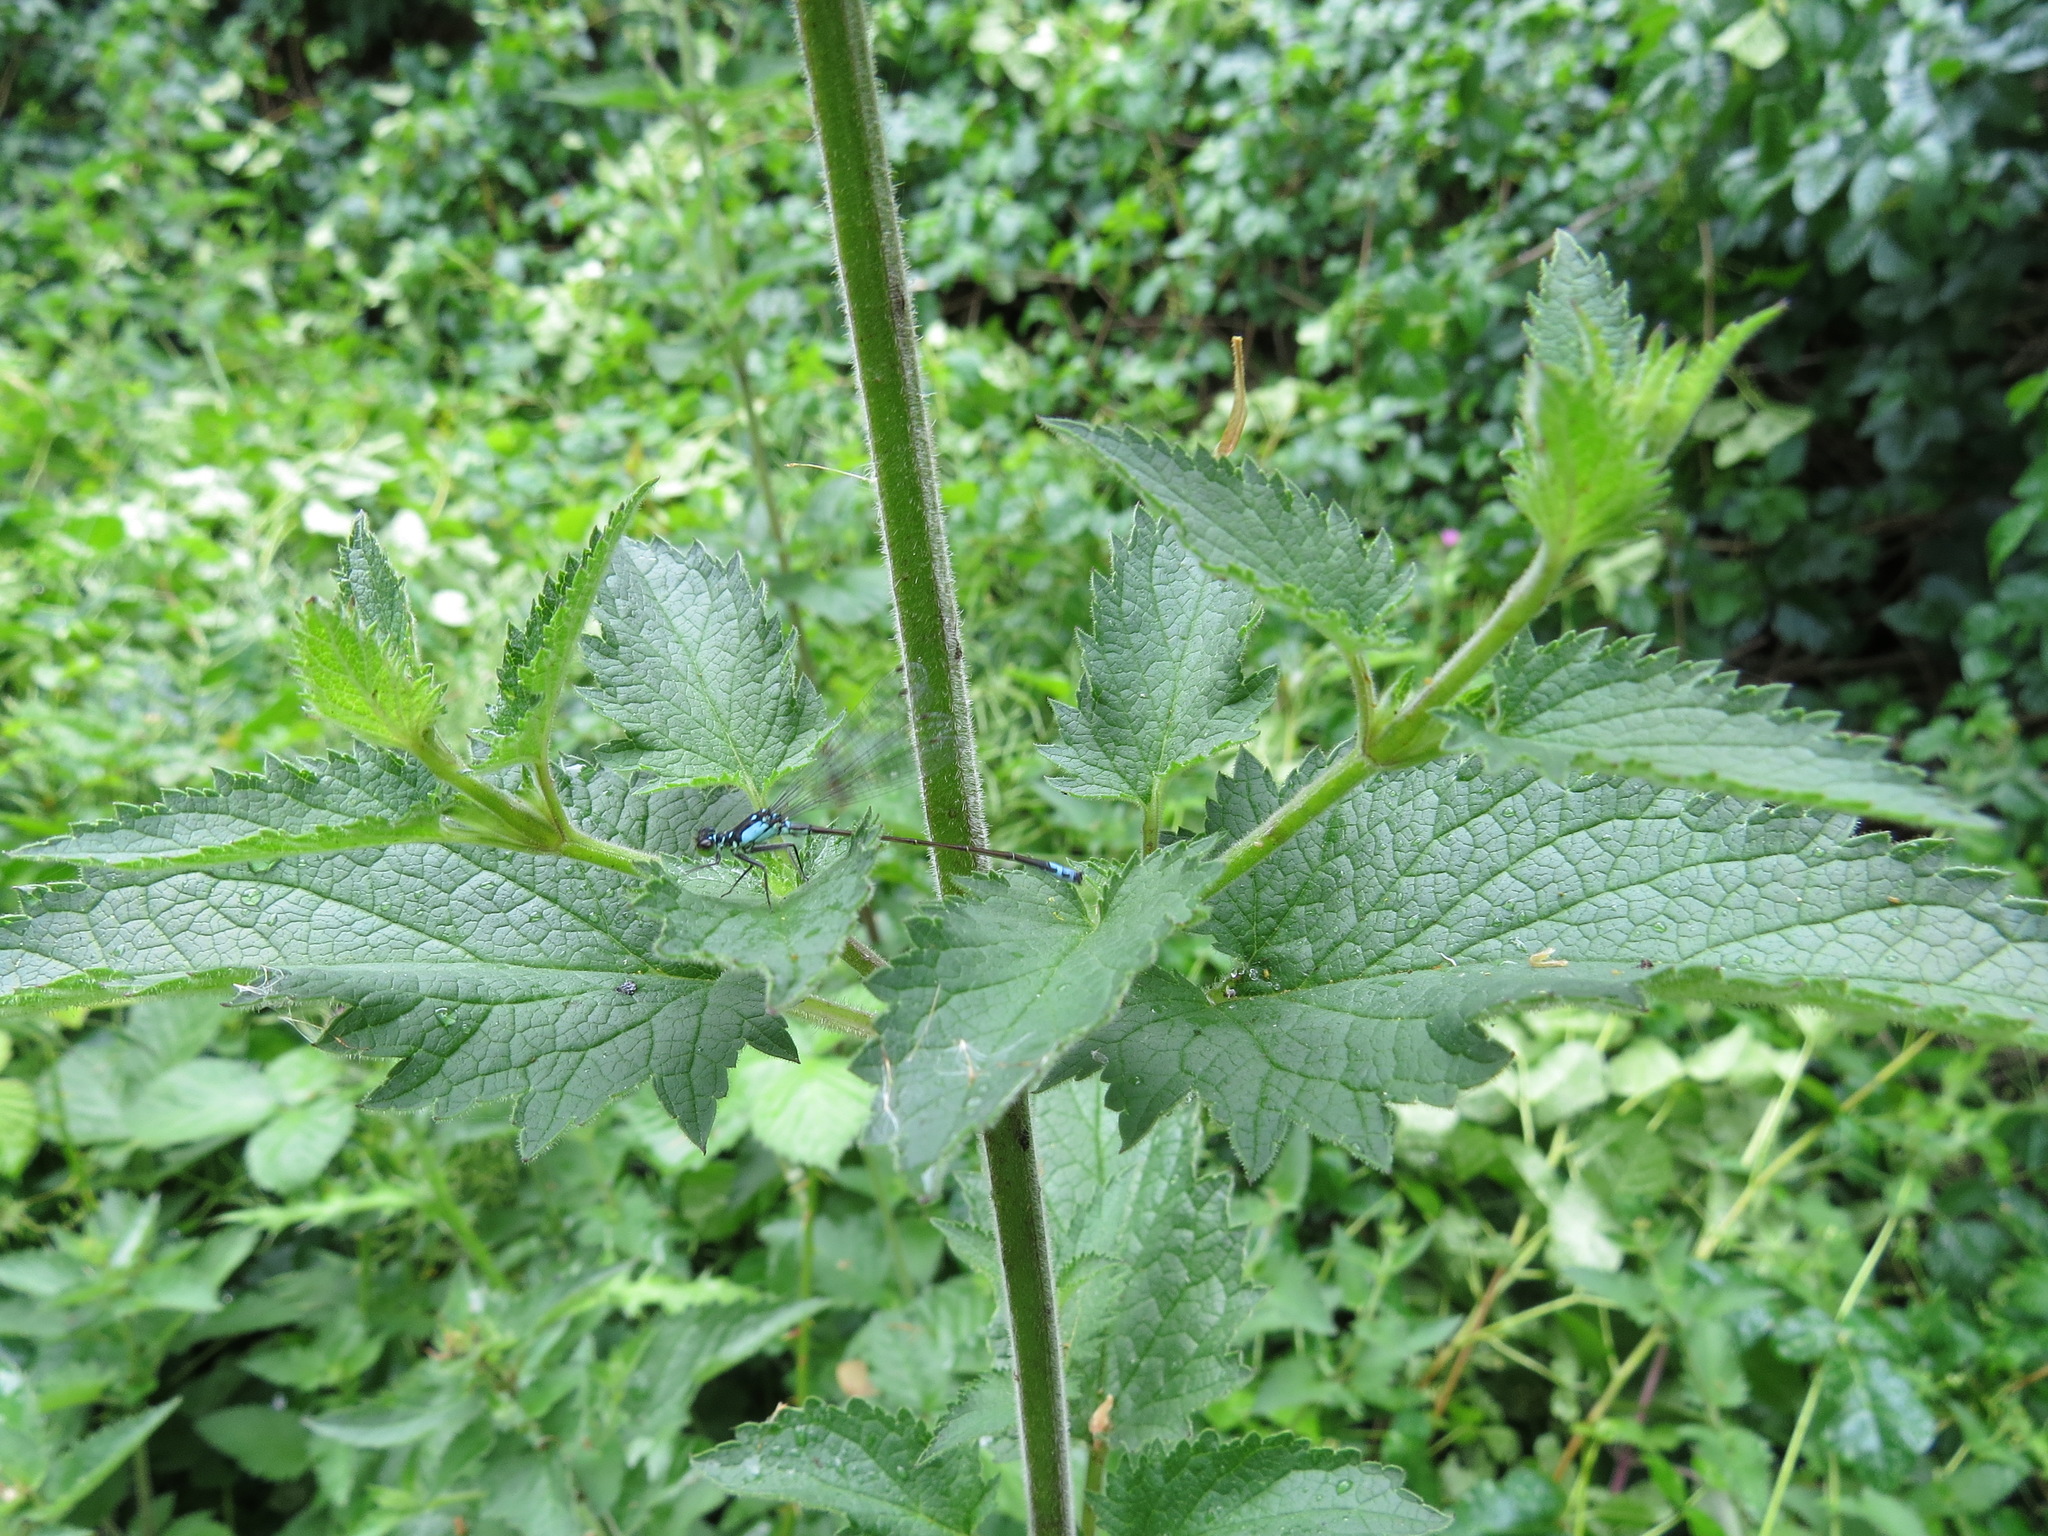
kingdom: Animalia
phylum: Arthropoda
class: Insecta
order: Odonata
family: Coenagrionidae
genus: Ischnura
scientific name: Ischnura cervula
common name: Pacific forktail
